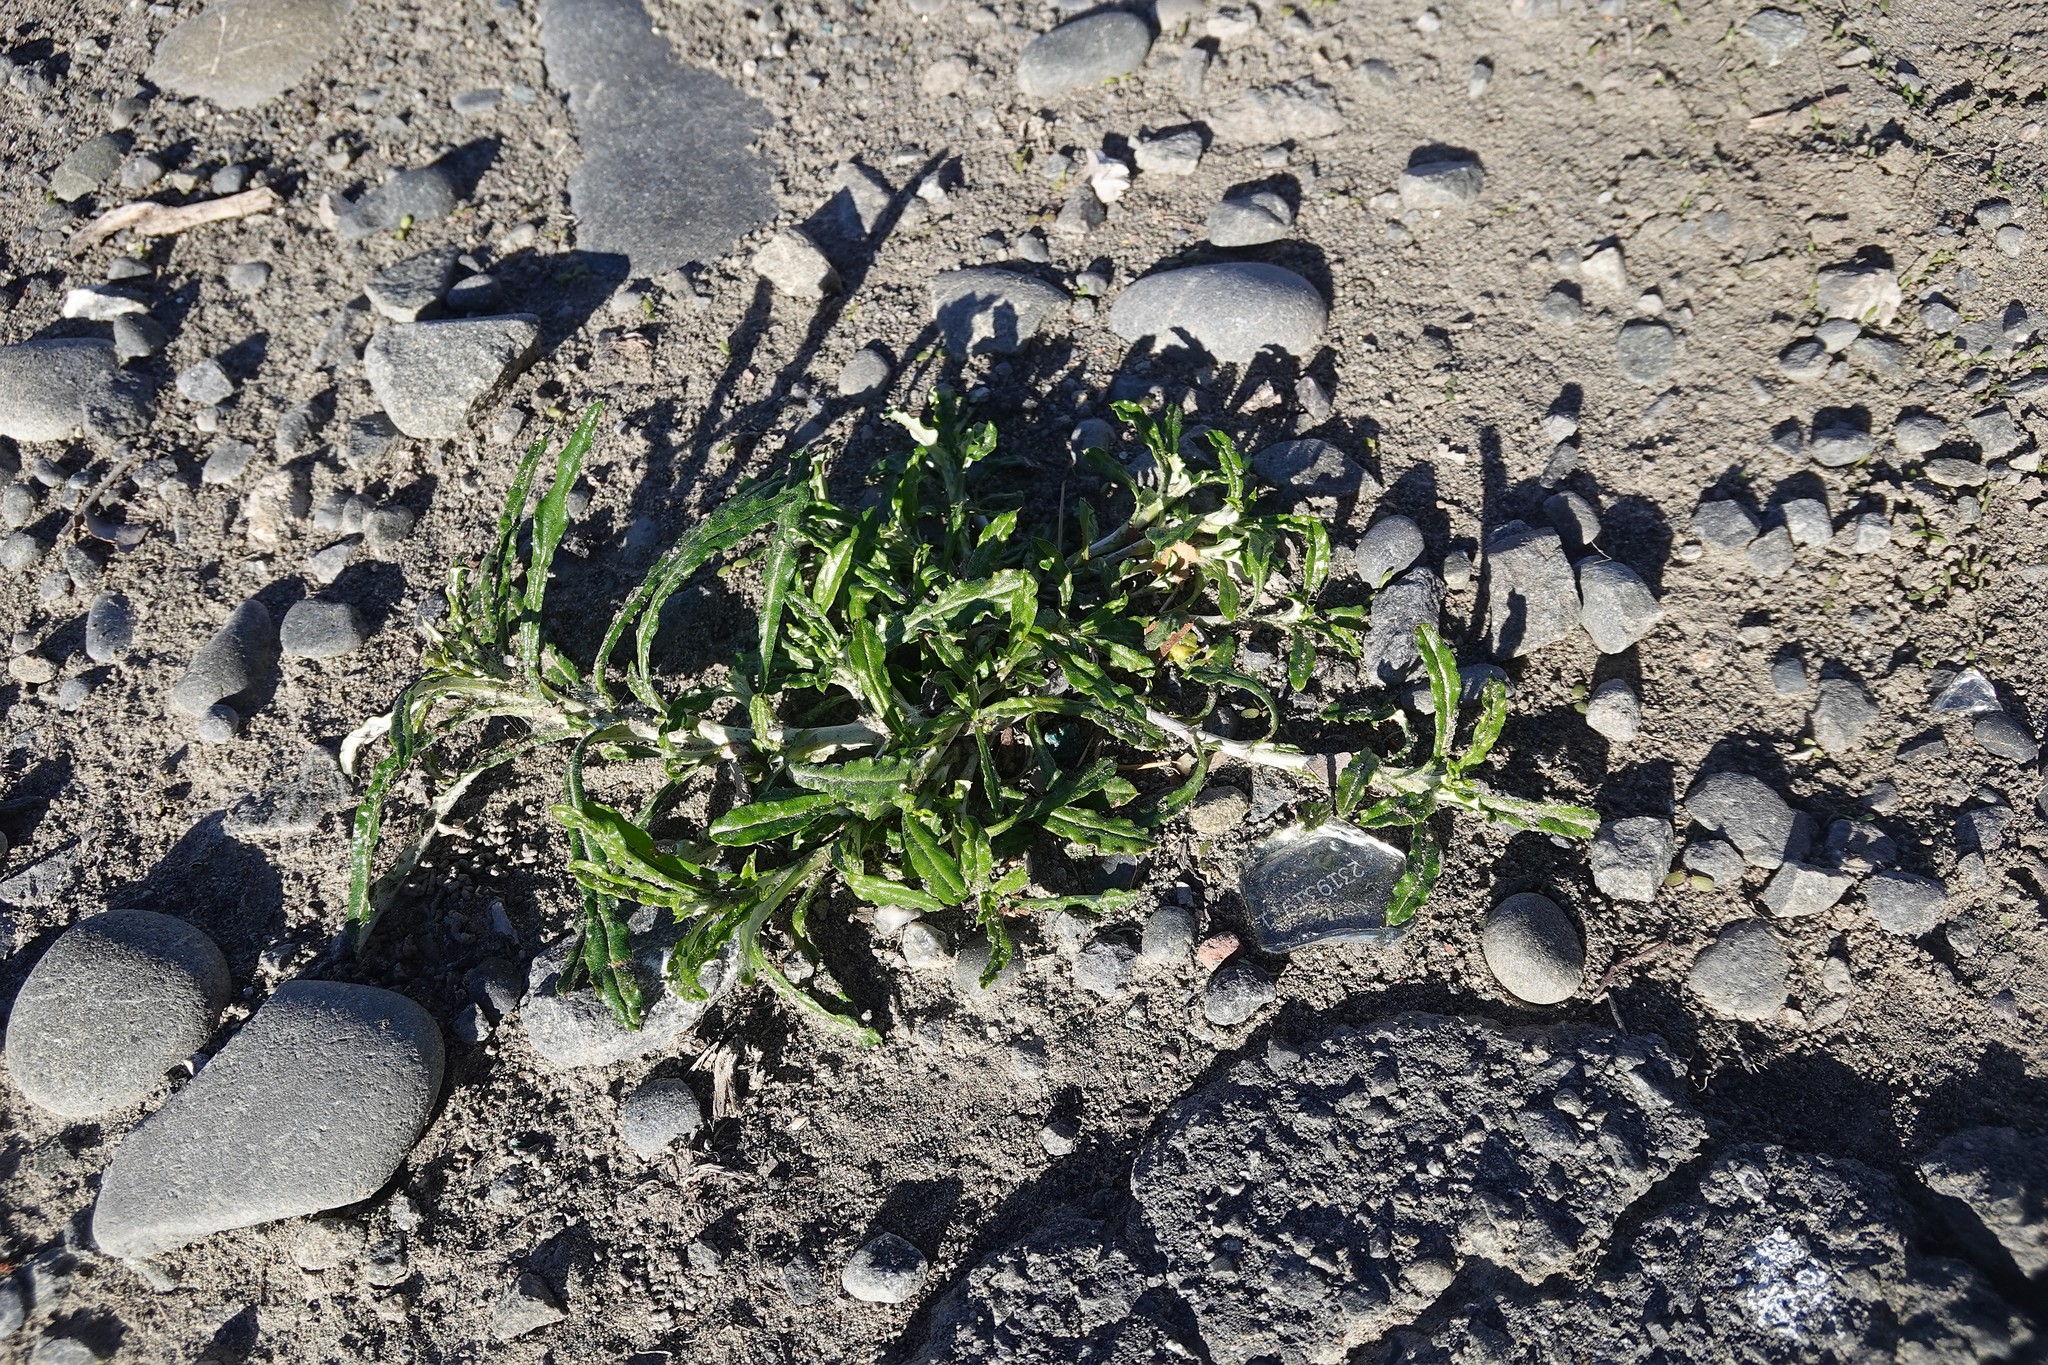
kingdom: Plantae
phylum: Tracheophyta
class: Magnoliopsida
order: Asterales
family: Asteraceae
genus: Euchiton
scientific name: Euchiton sphaericus
